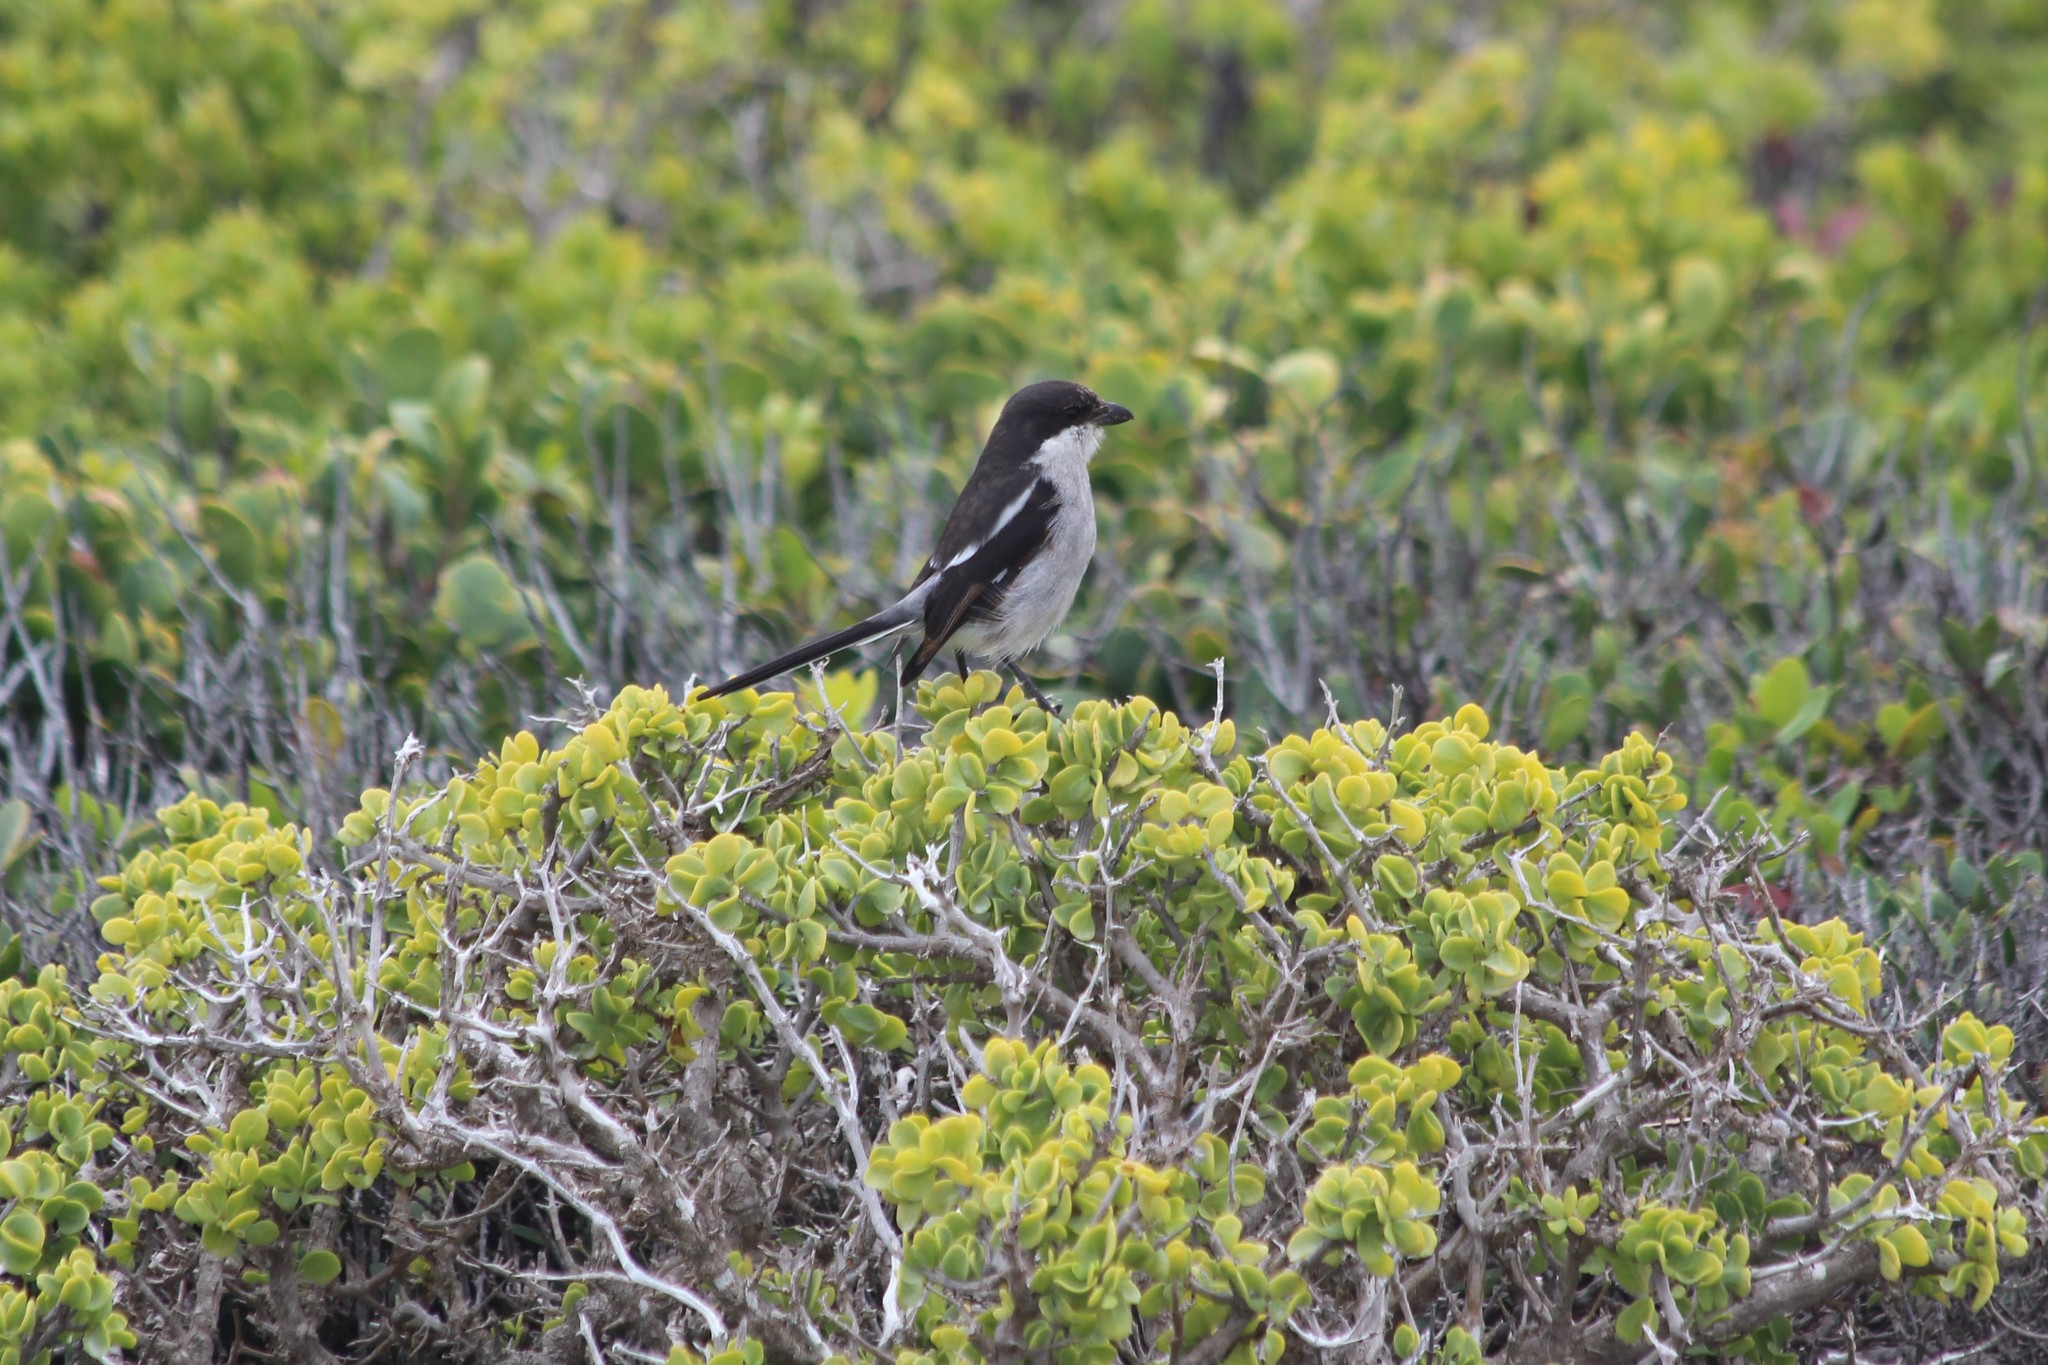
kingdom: Animalia
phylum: Chordata
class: Aves
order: Passeriformes
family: Laniidae
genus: Lanius
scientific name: Lanius collaris
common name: Southern fiscal
